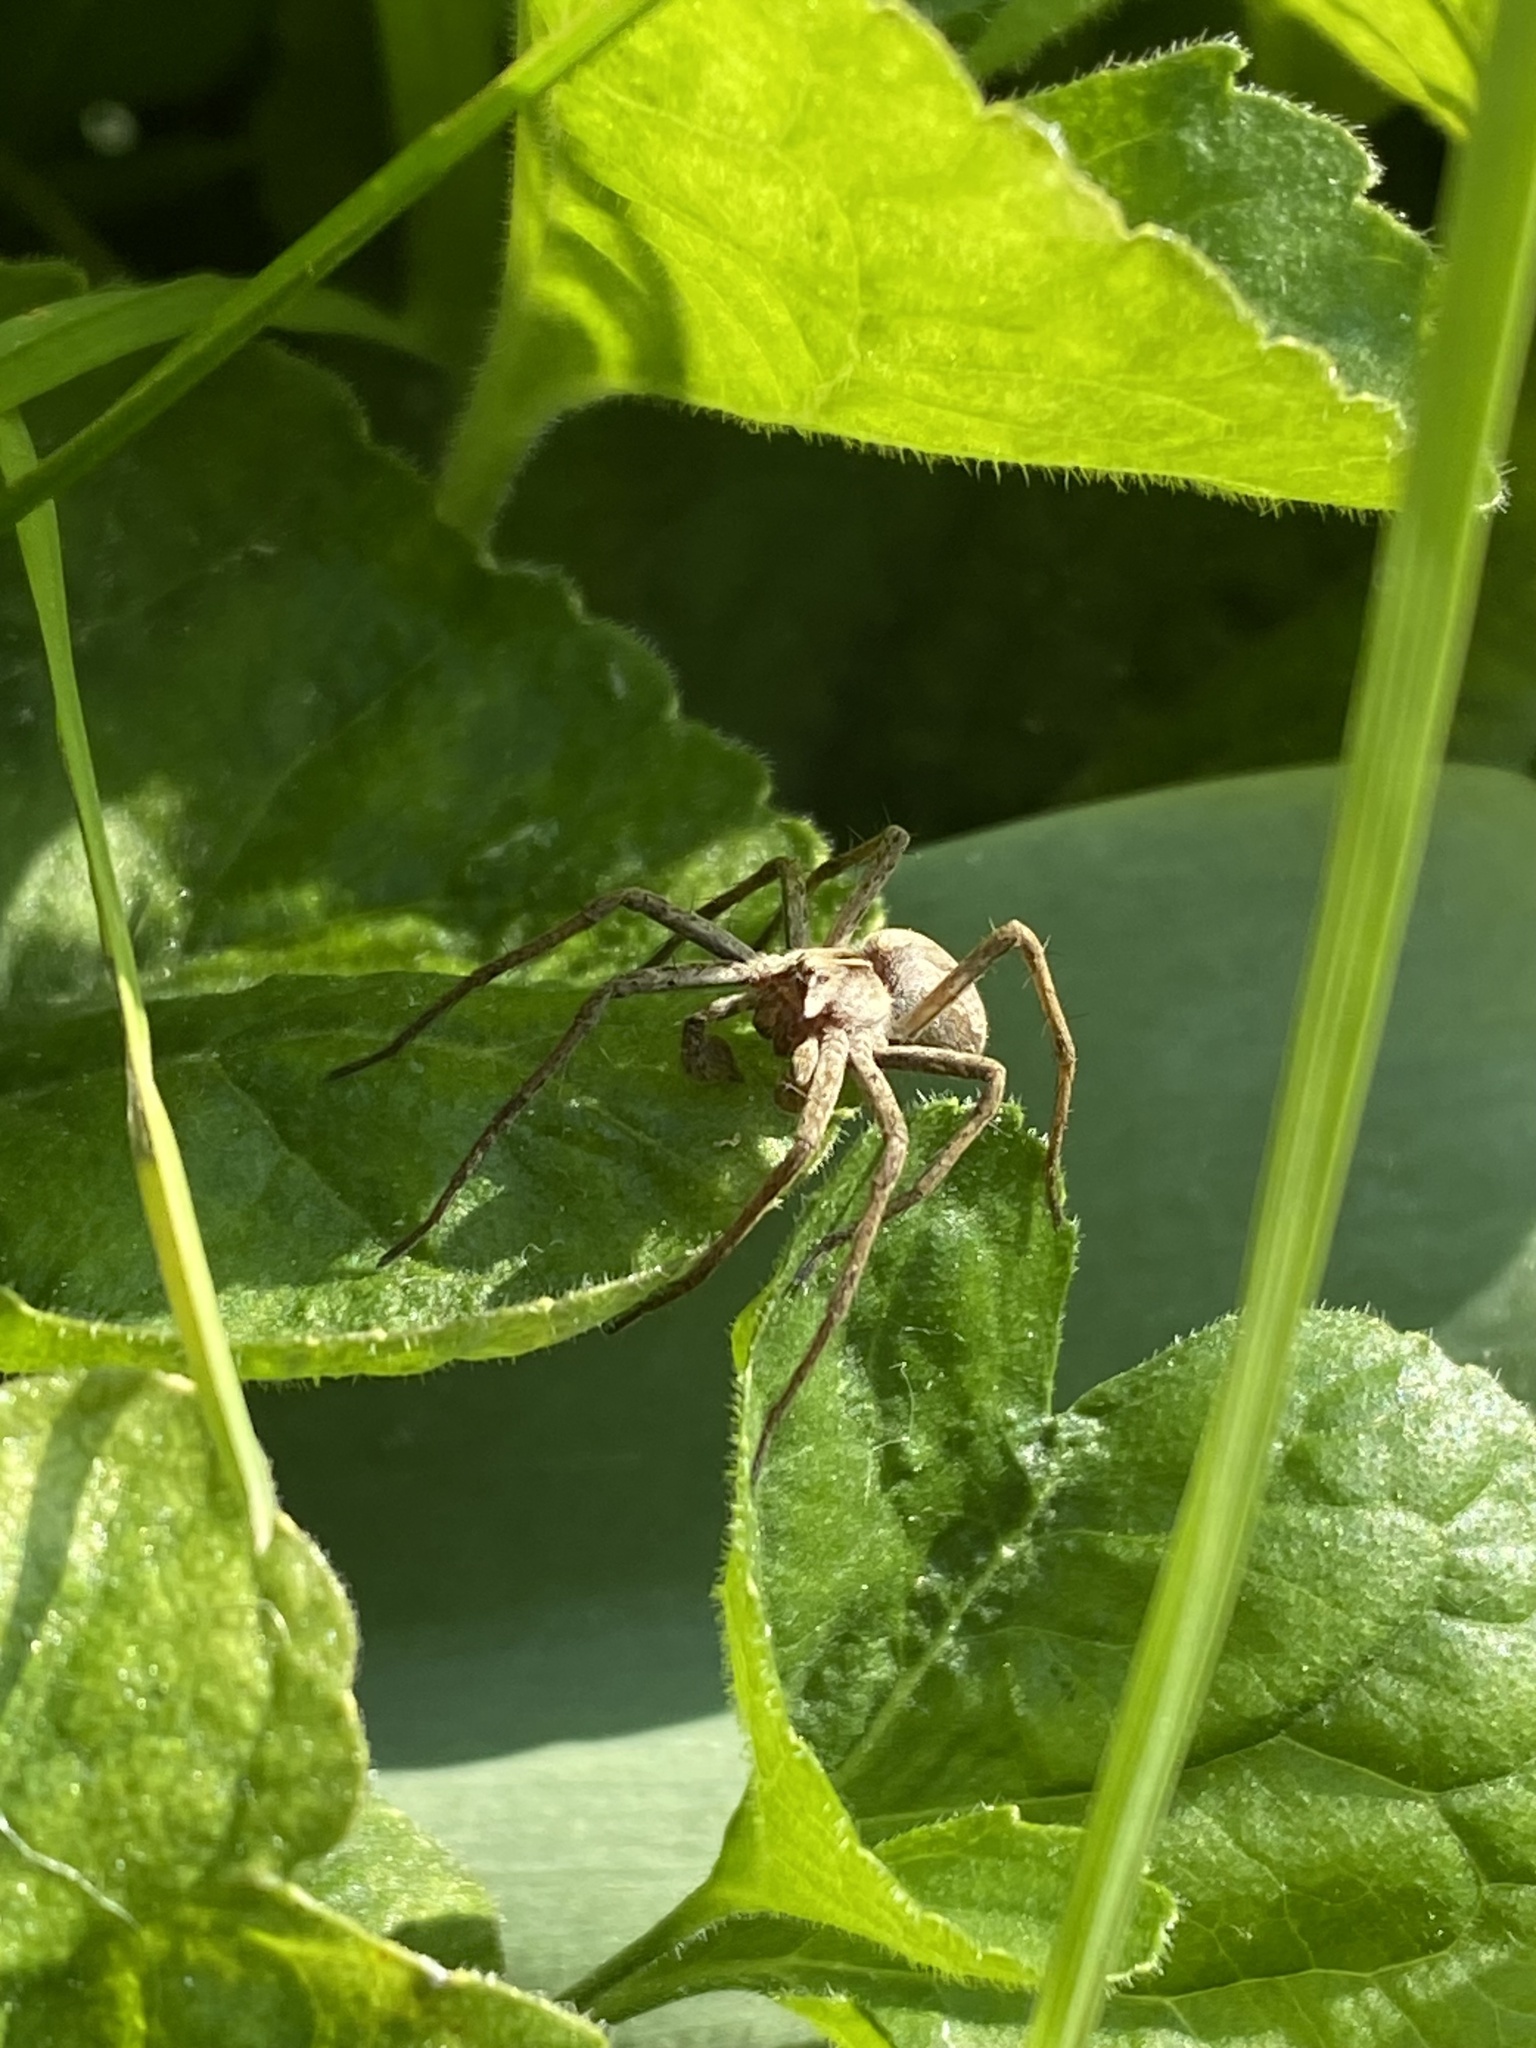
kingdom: Animalia
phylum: Arthropoda
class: Arachnida
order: Araneae
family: Pisauridae
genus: Pisaura
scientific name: Pisaura
